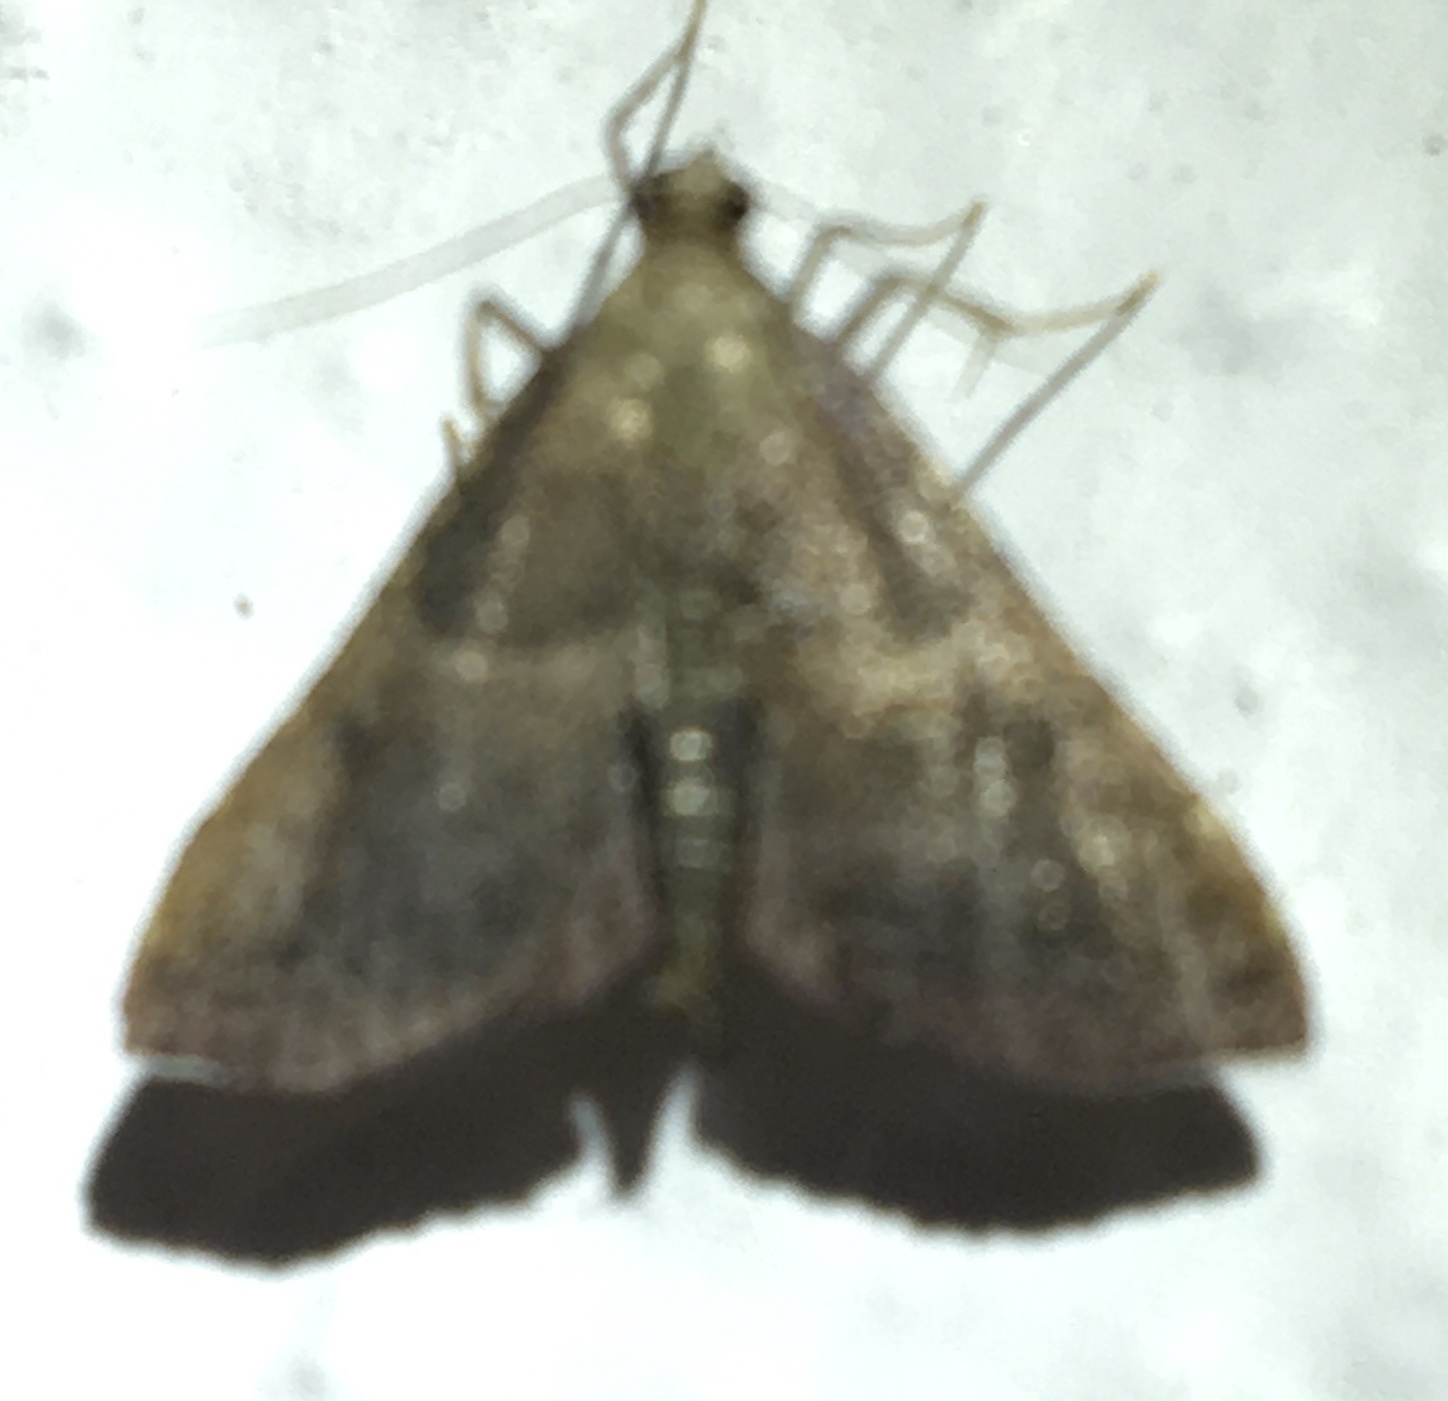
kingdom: Animalia
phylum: Arthropoda
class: Insecta
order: Lepidoptera
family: Pyralidae
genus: Endotricha
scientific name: Endotricha flammealis
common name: Rosy tabby
